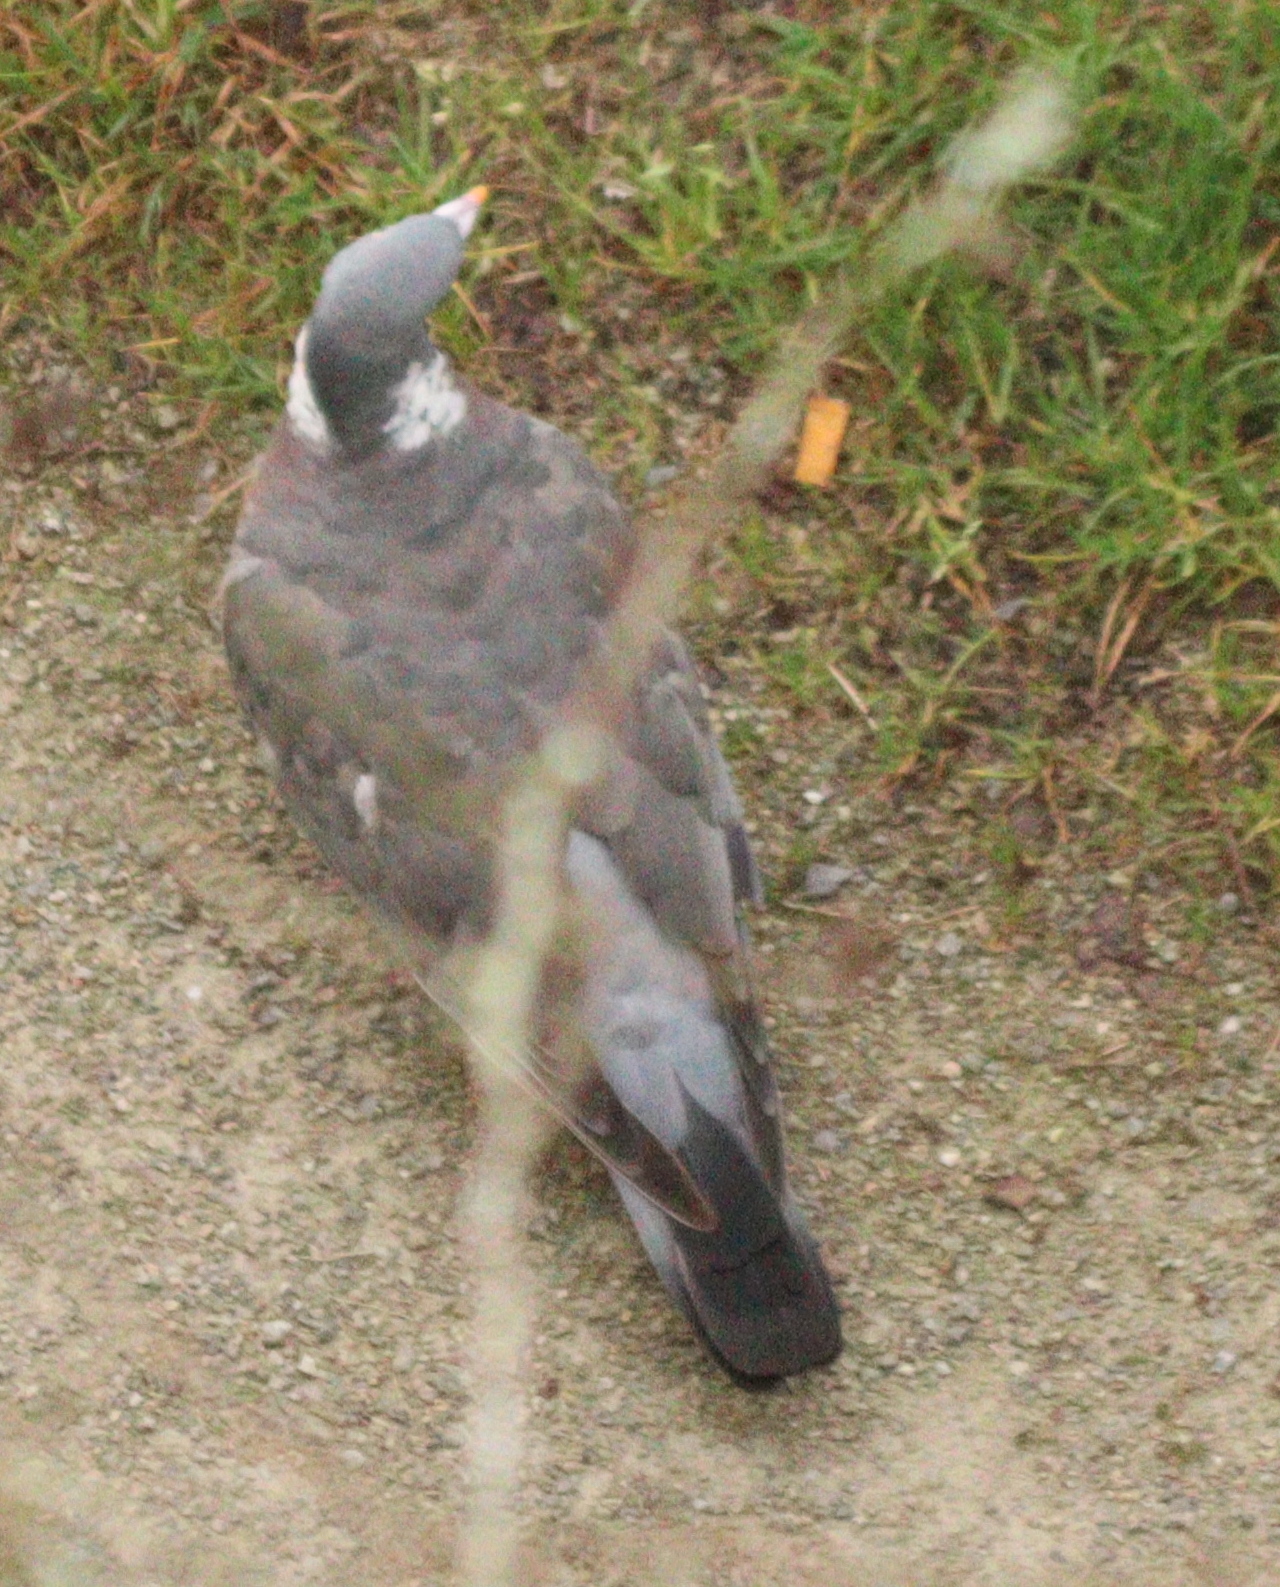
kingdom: Animalia
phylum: Chordata
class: Aves
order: Columbiformes
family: Columbidae
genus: Columba
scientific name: Columba palumbus
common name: Common wood pigeon
